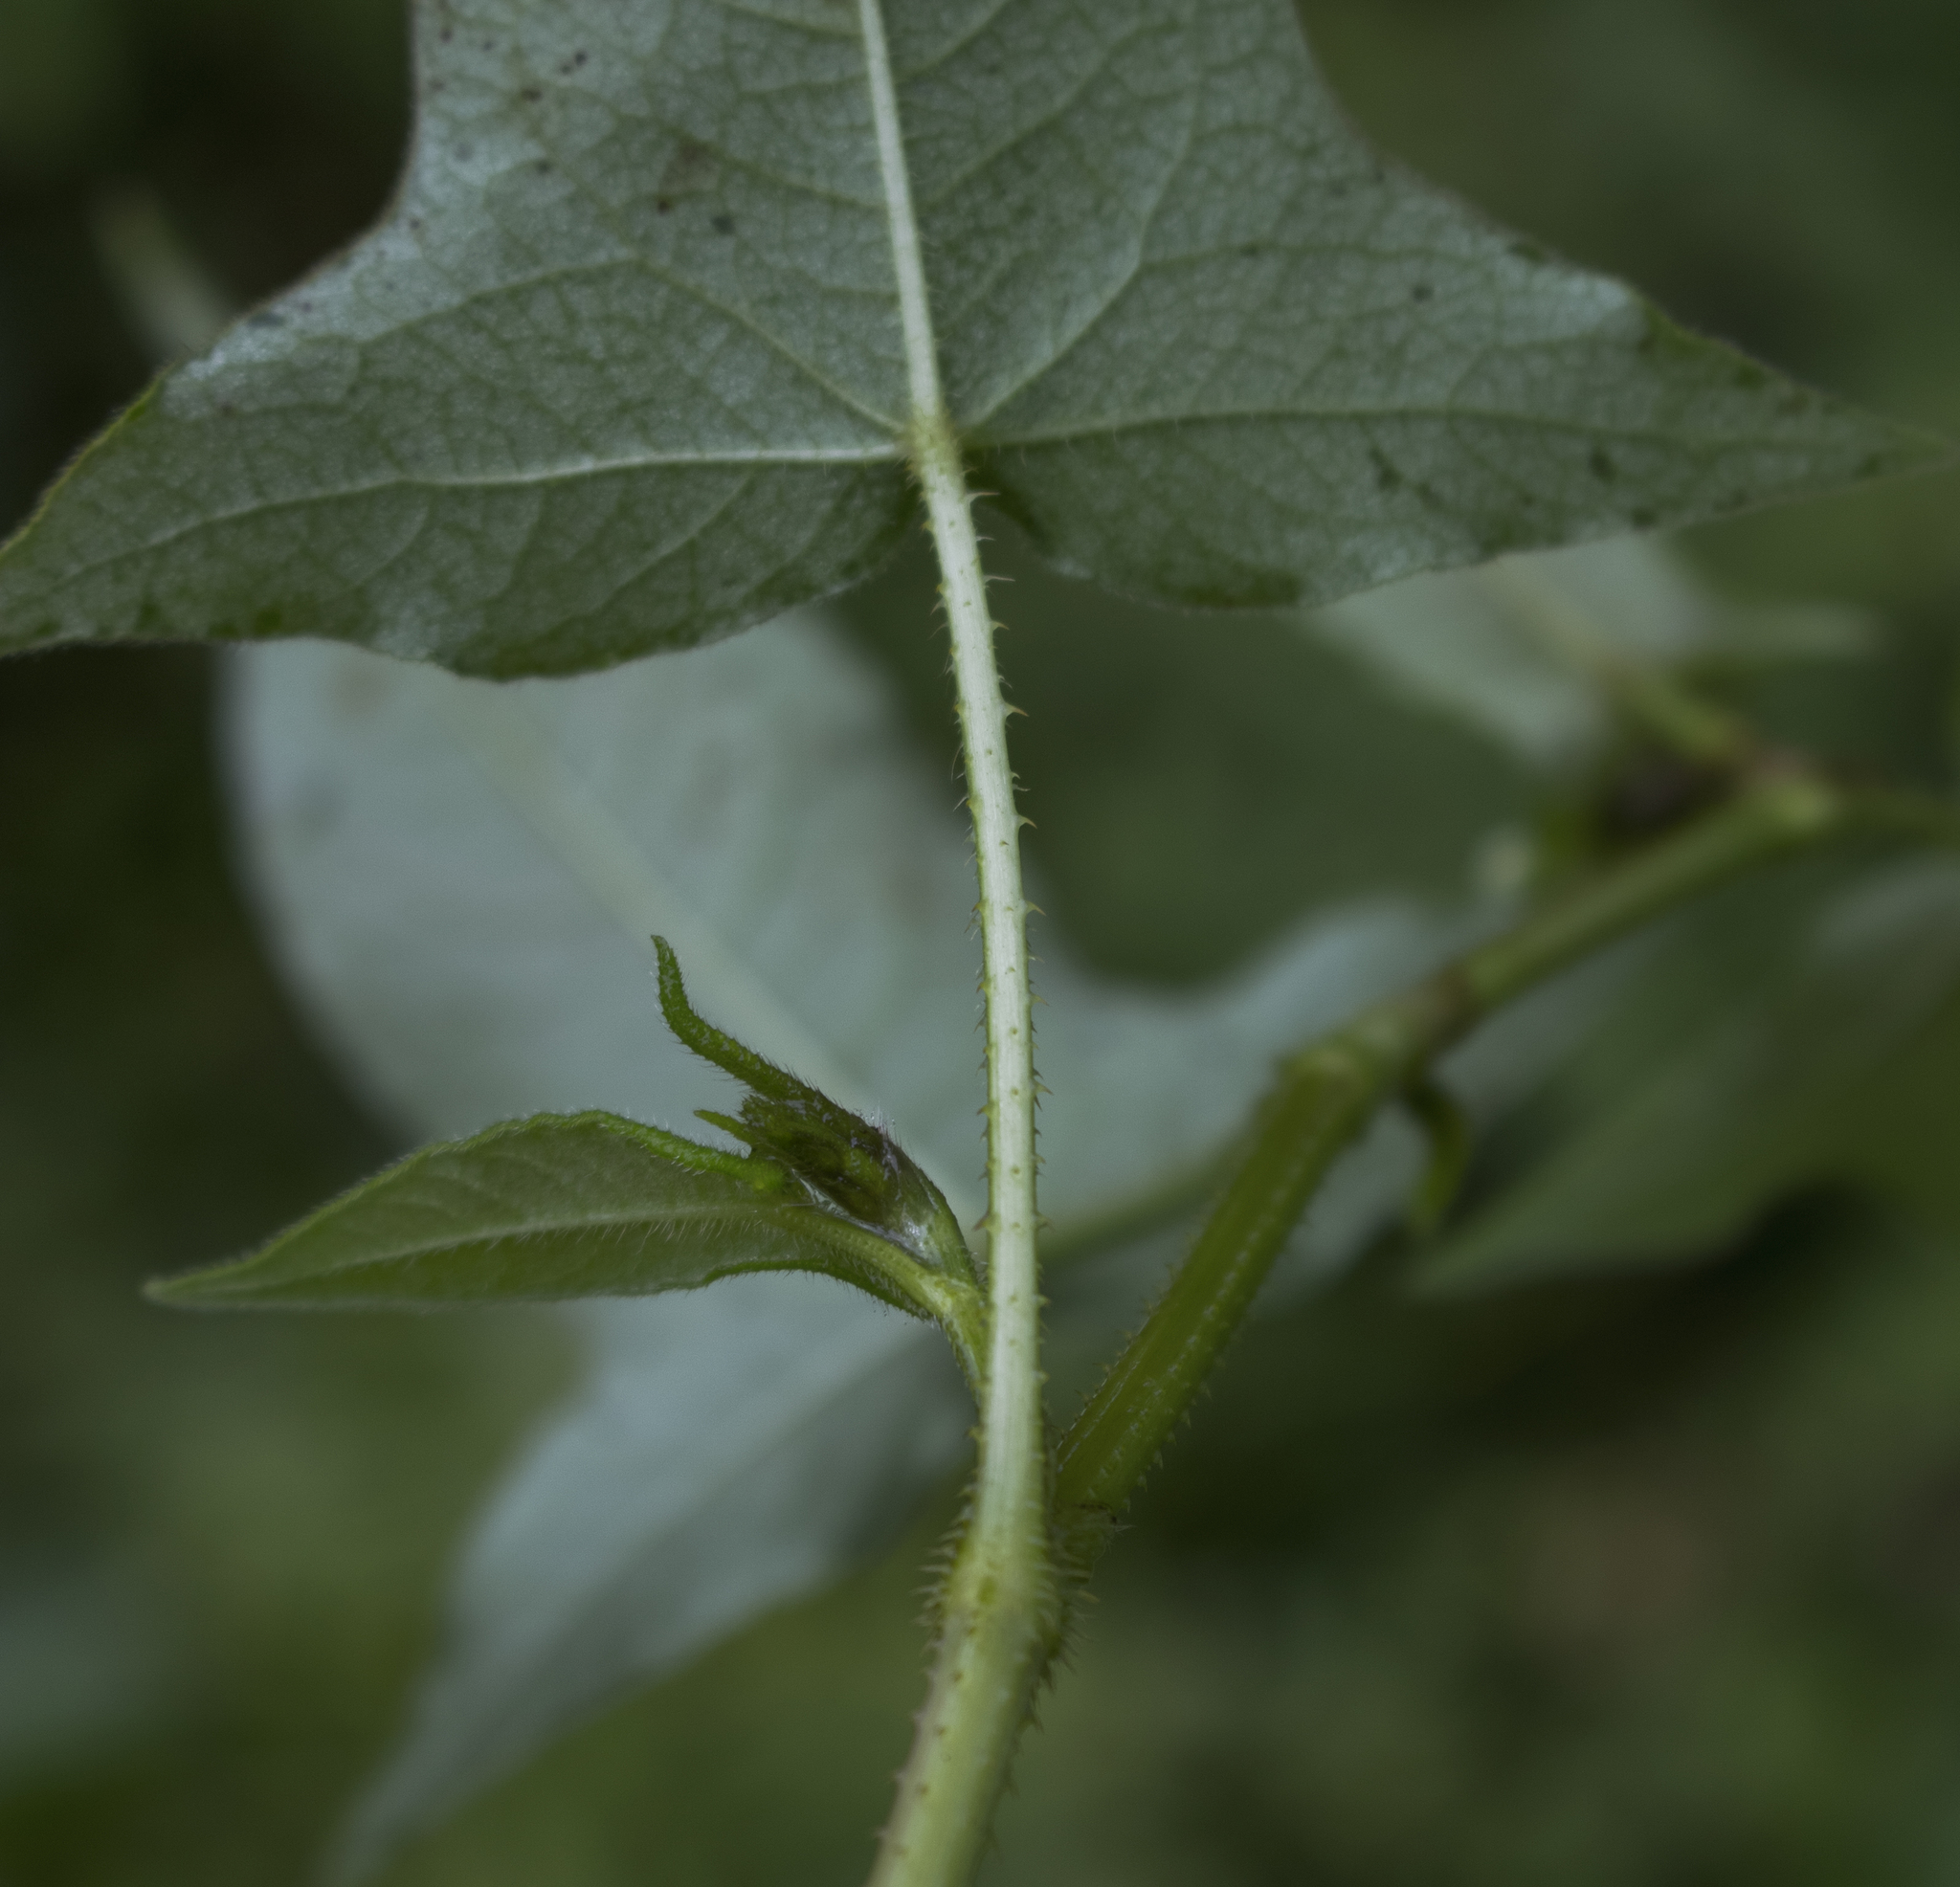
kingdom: Plantae
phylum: Tracheophyta
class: Magnoliopsida
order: Caryophyllales
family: Polygonaceae
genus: Persicaria
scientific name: Persicaria arifolia
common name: Halberd-leaved tear-thumb
